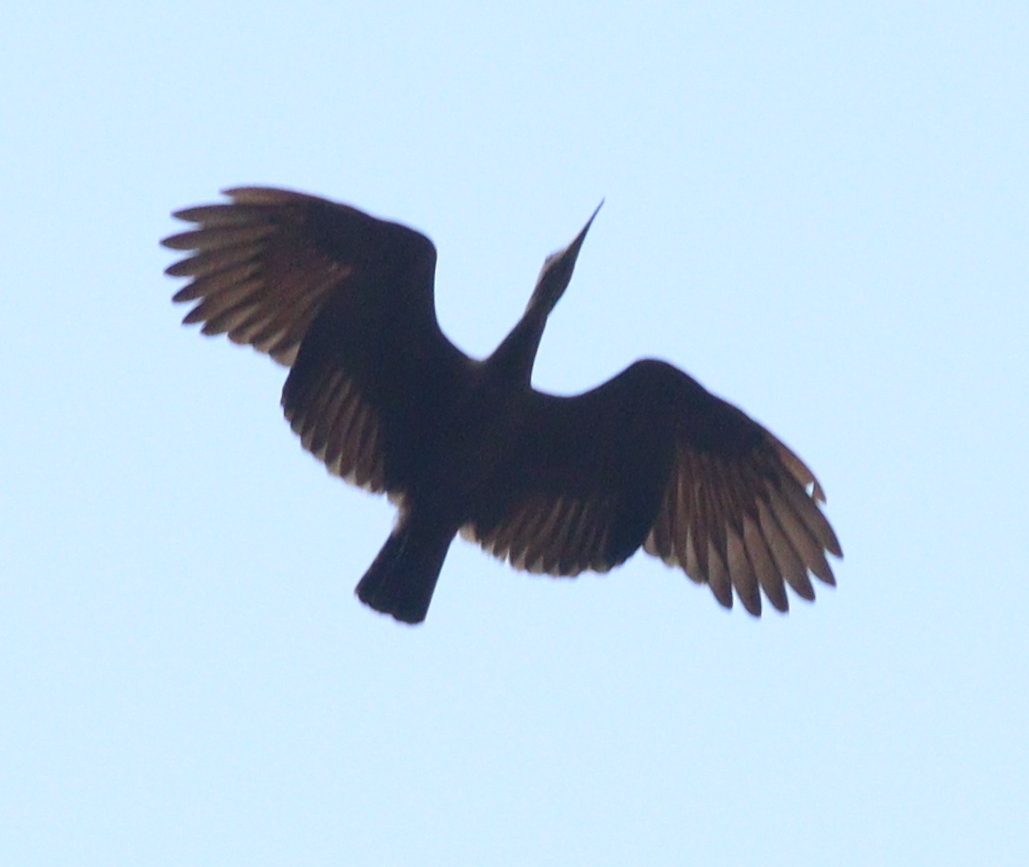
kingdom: Animalia
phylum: Chordata
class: Aves
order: Pelecaniformes
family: Scopidae
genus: Scopus
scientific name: Scopus umbretta
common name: Hamerkop
